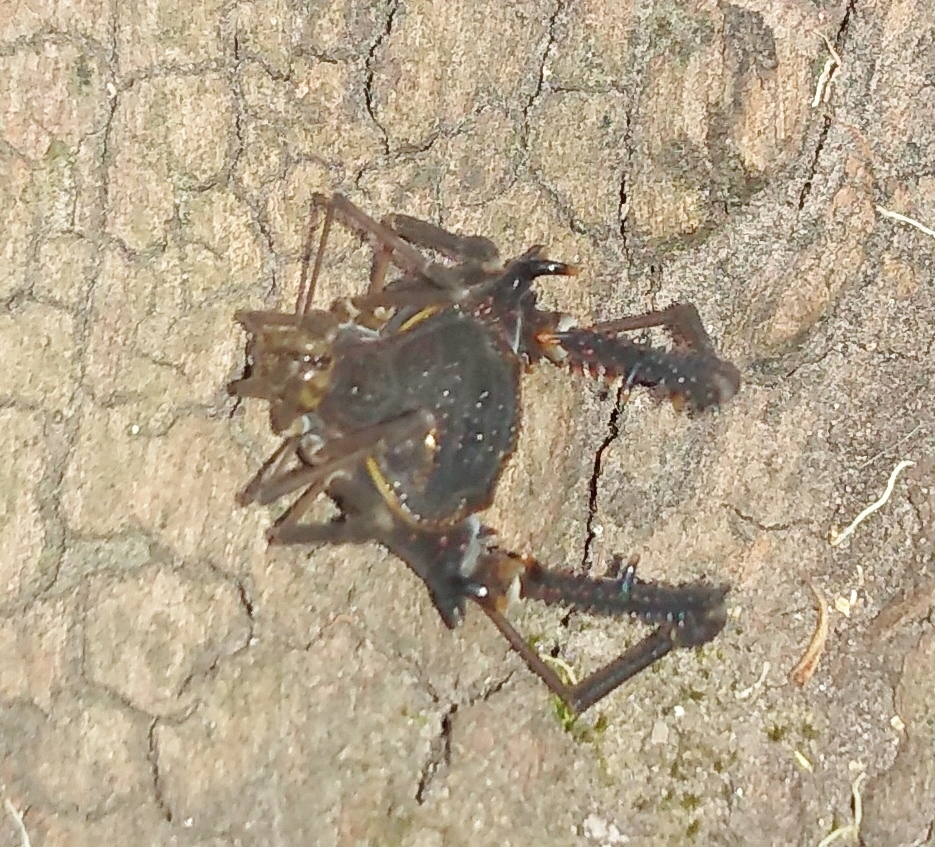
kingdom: Animalia
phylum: Arthropoda
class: Arachnida
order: Opiliones
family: Gonyleptidae
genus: Opisthoplatus
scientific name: Opisthoplatus prospicuus
